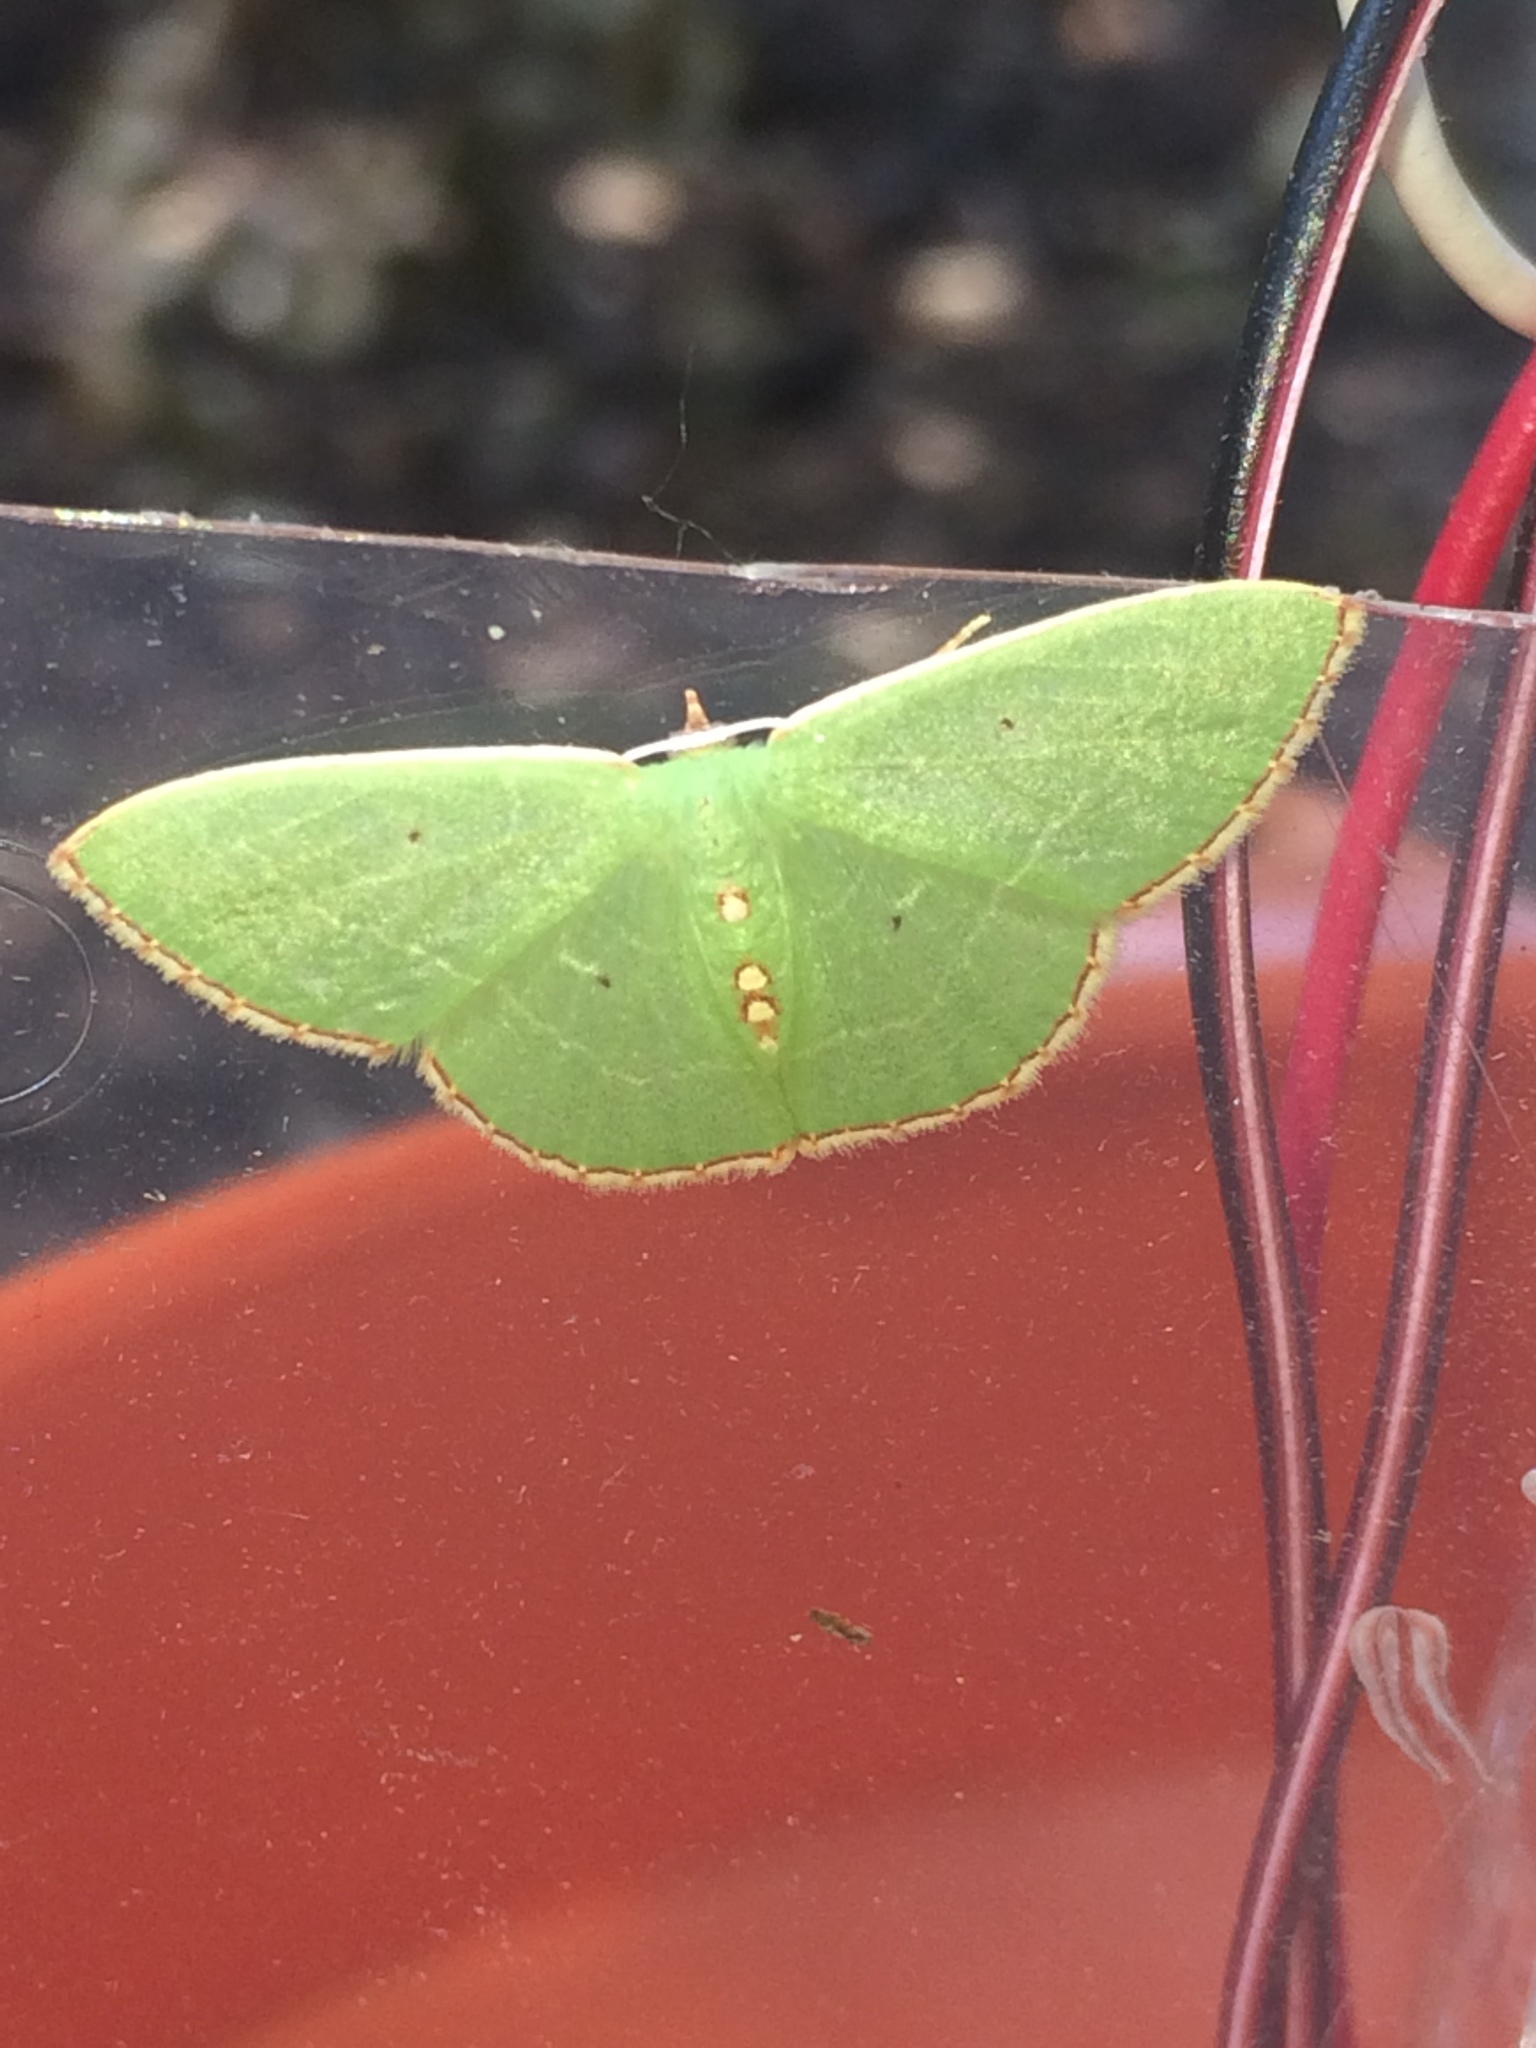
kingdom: Animalia
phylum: Arthropoda
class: Insecta
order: Lepidoptera
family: Geometridae
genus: Nemoria
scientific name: Nemoria lixaria
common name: Red-bordered emerald
